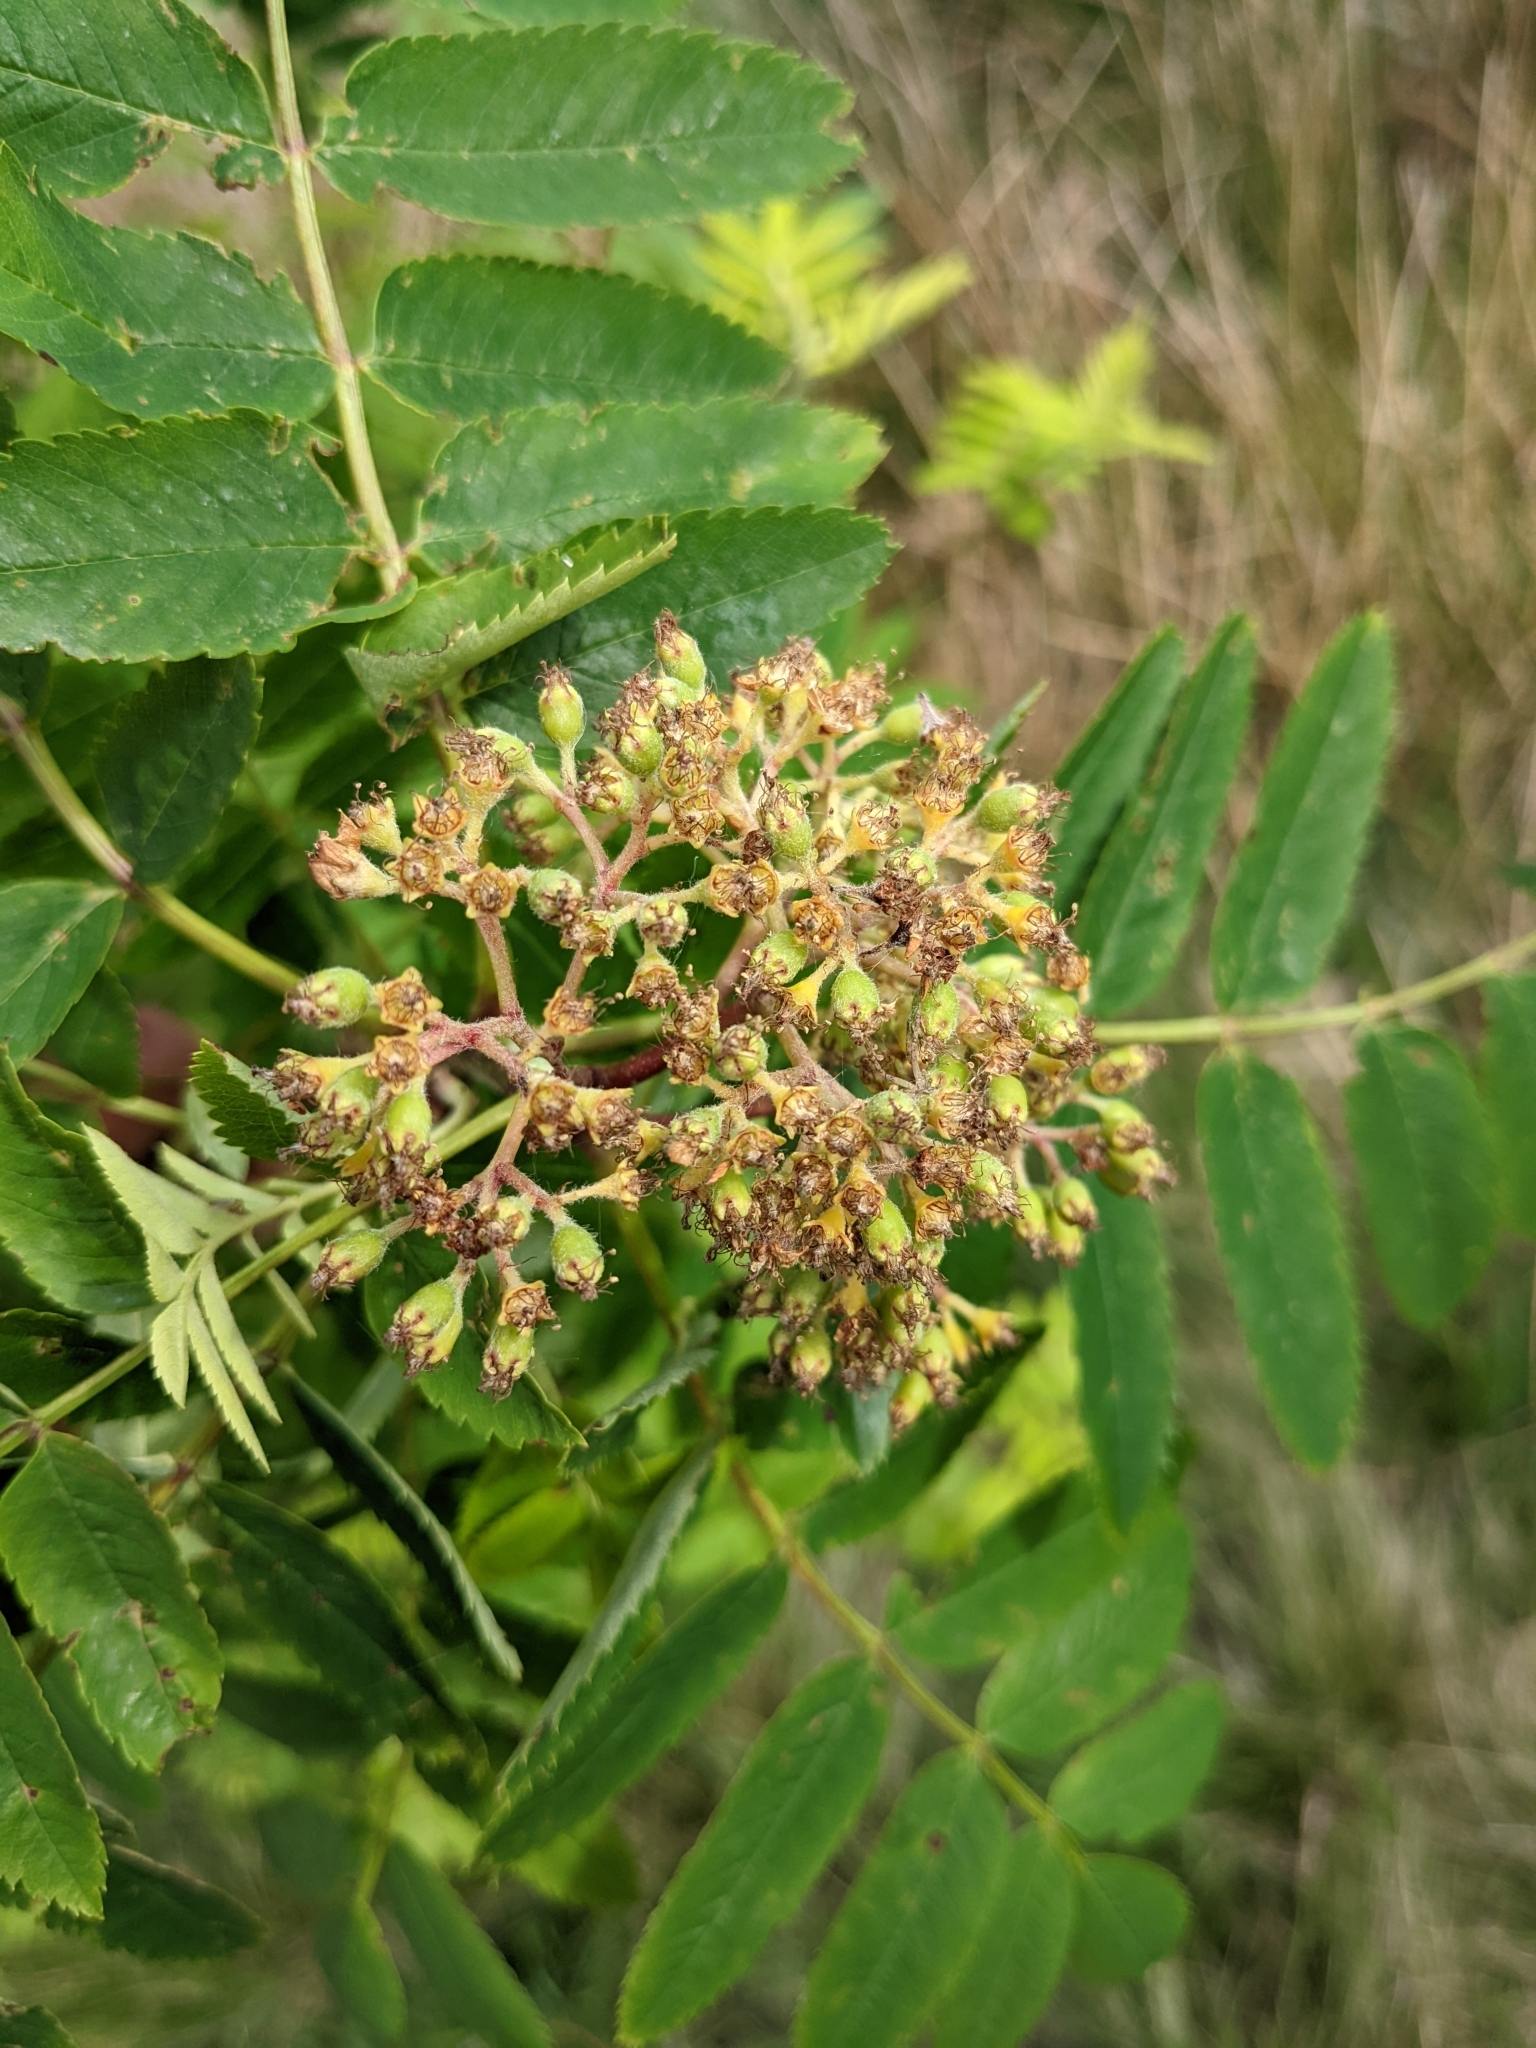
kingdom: Plantae
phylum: Tracheophyta
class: Magnoliopsida
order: Rosales
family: Rosaceae
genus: Sorbus
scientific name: Sorbus aucuparia
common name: Rowan
